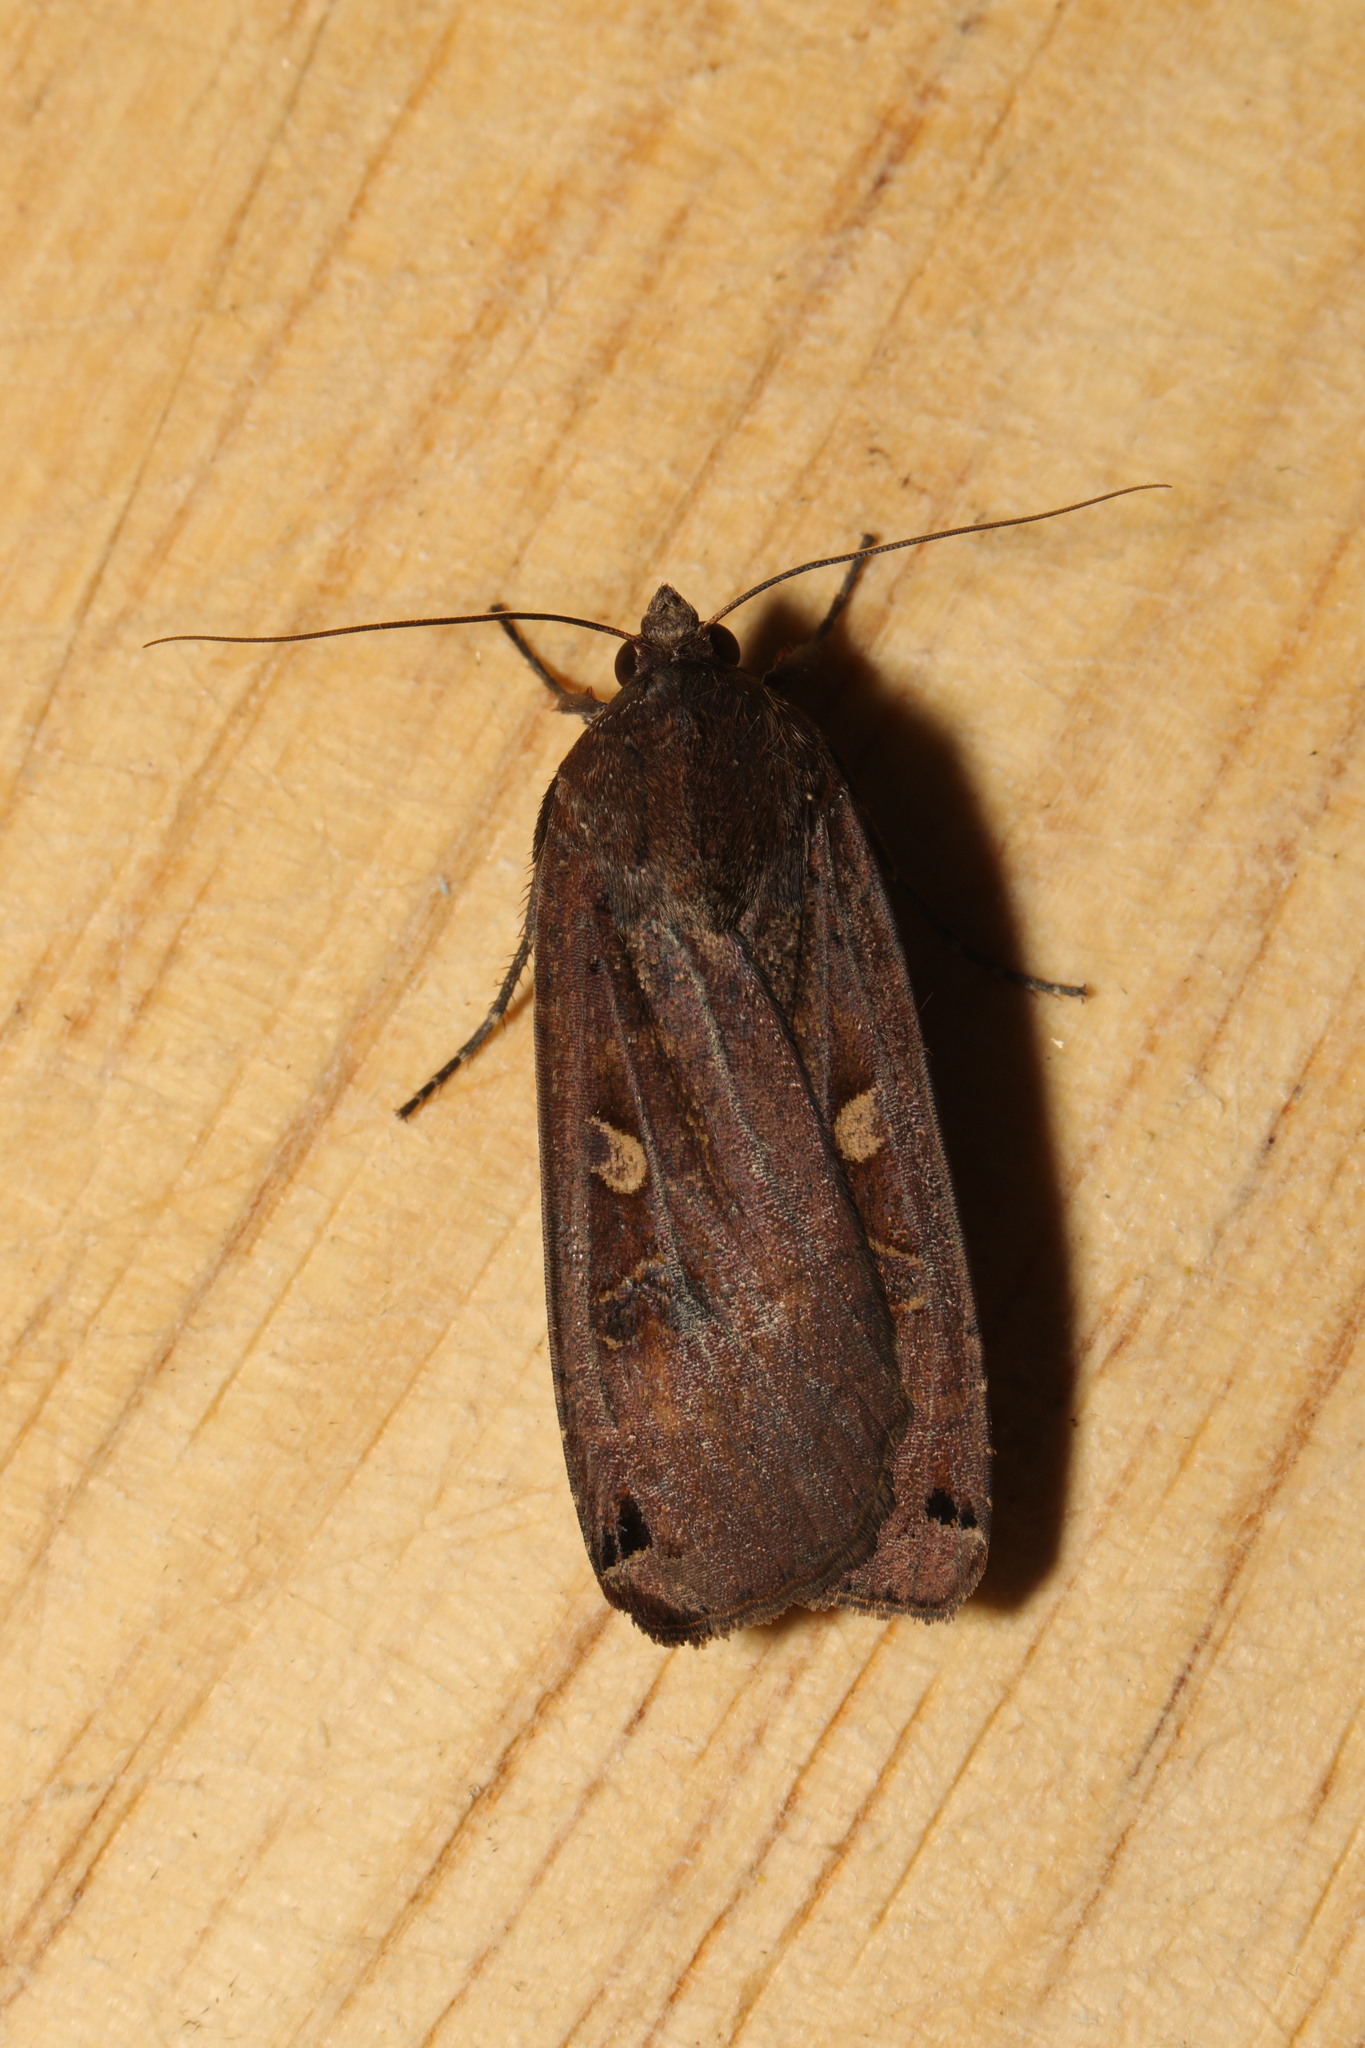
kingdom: Animalia
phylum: Arthropoda
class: Insecta
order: Lepidoptera
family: Noctuidae
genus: Noctua
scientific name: Noctua pronuba
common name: Large yellow underwing
